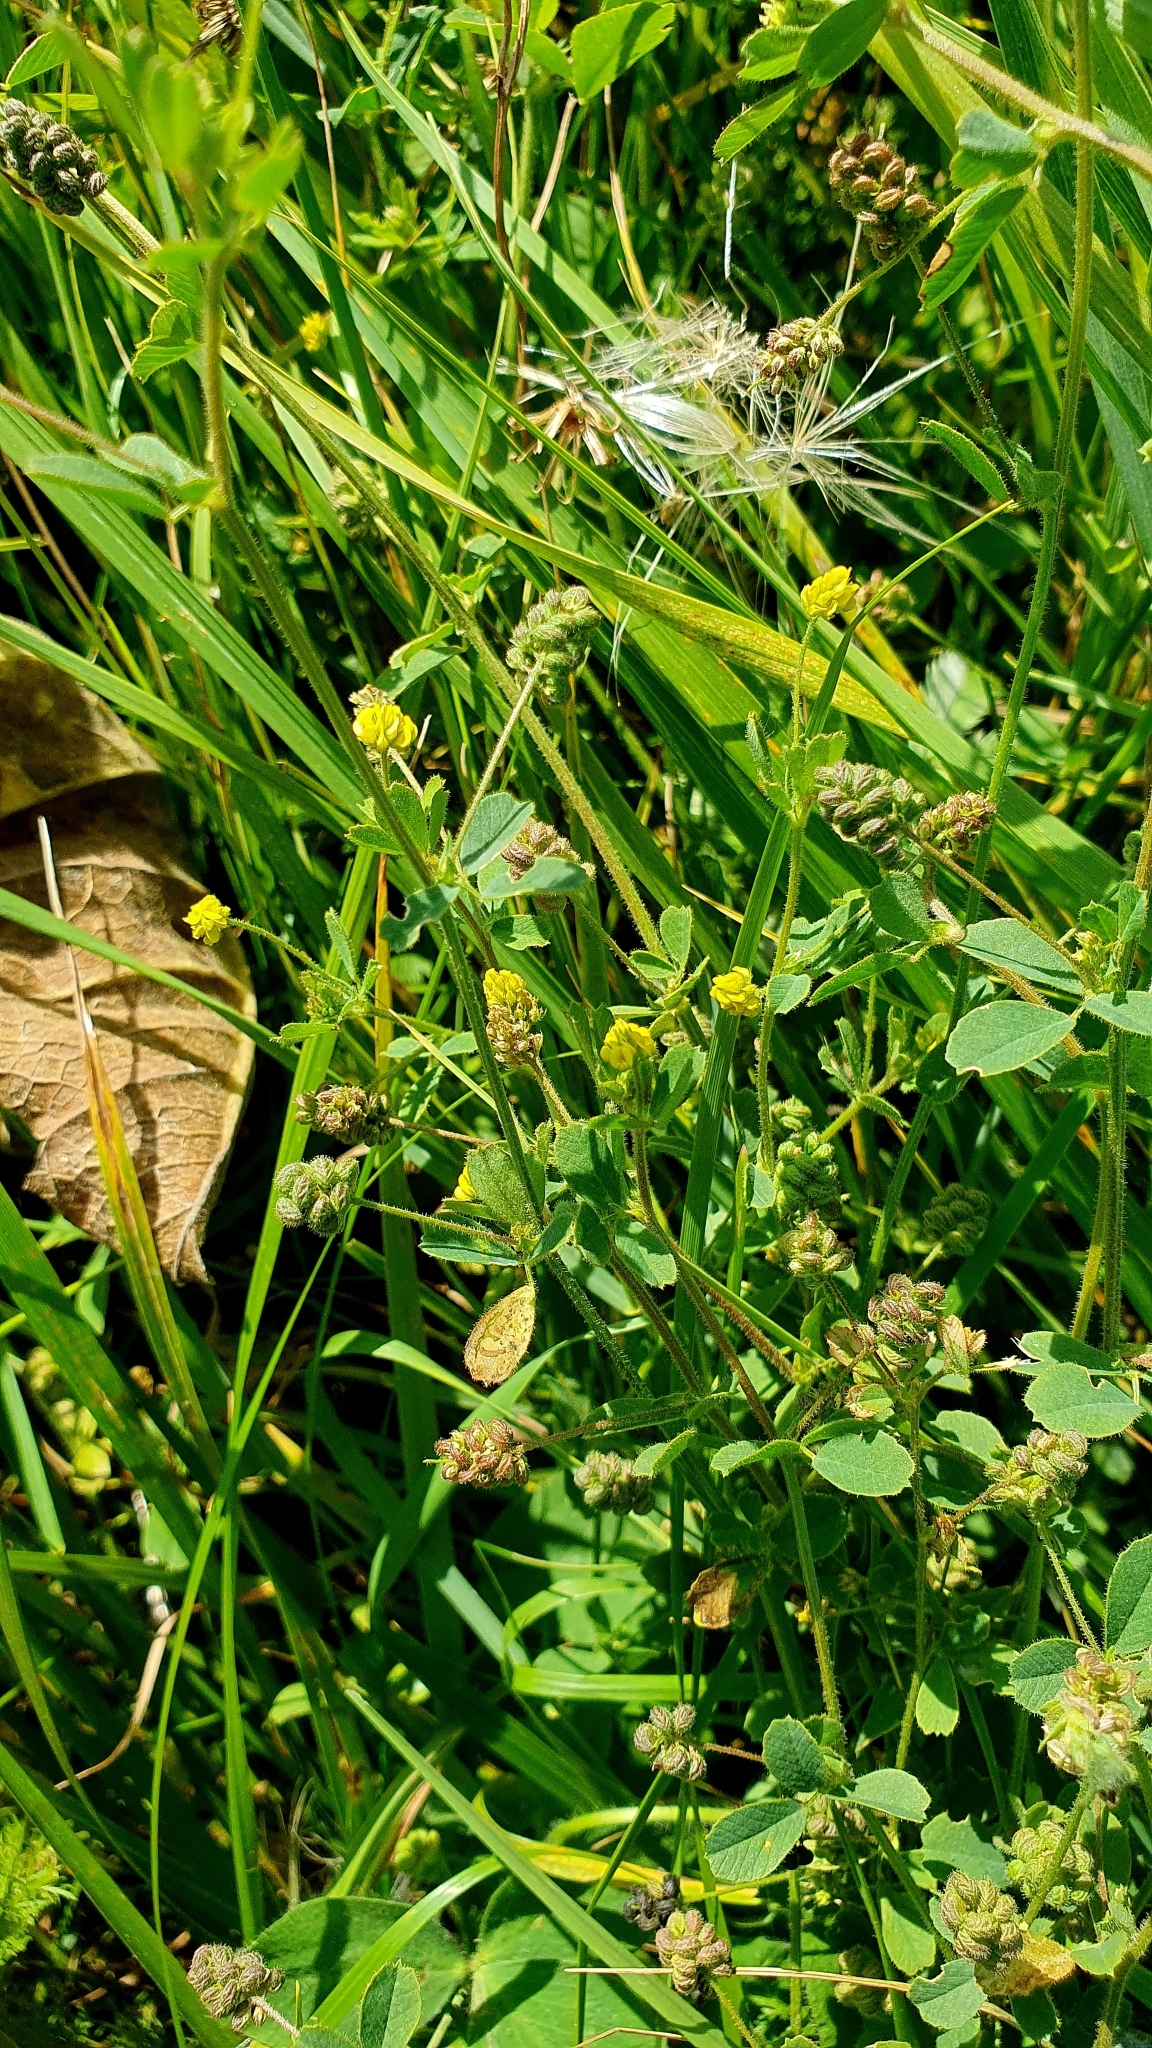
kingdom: Plantae
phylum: Tracheophyta
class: Magnoliopsida
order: Fabales
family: Fabaceae
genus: Medicago
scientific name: Medicago lupulina
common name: Black medick
